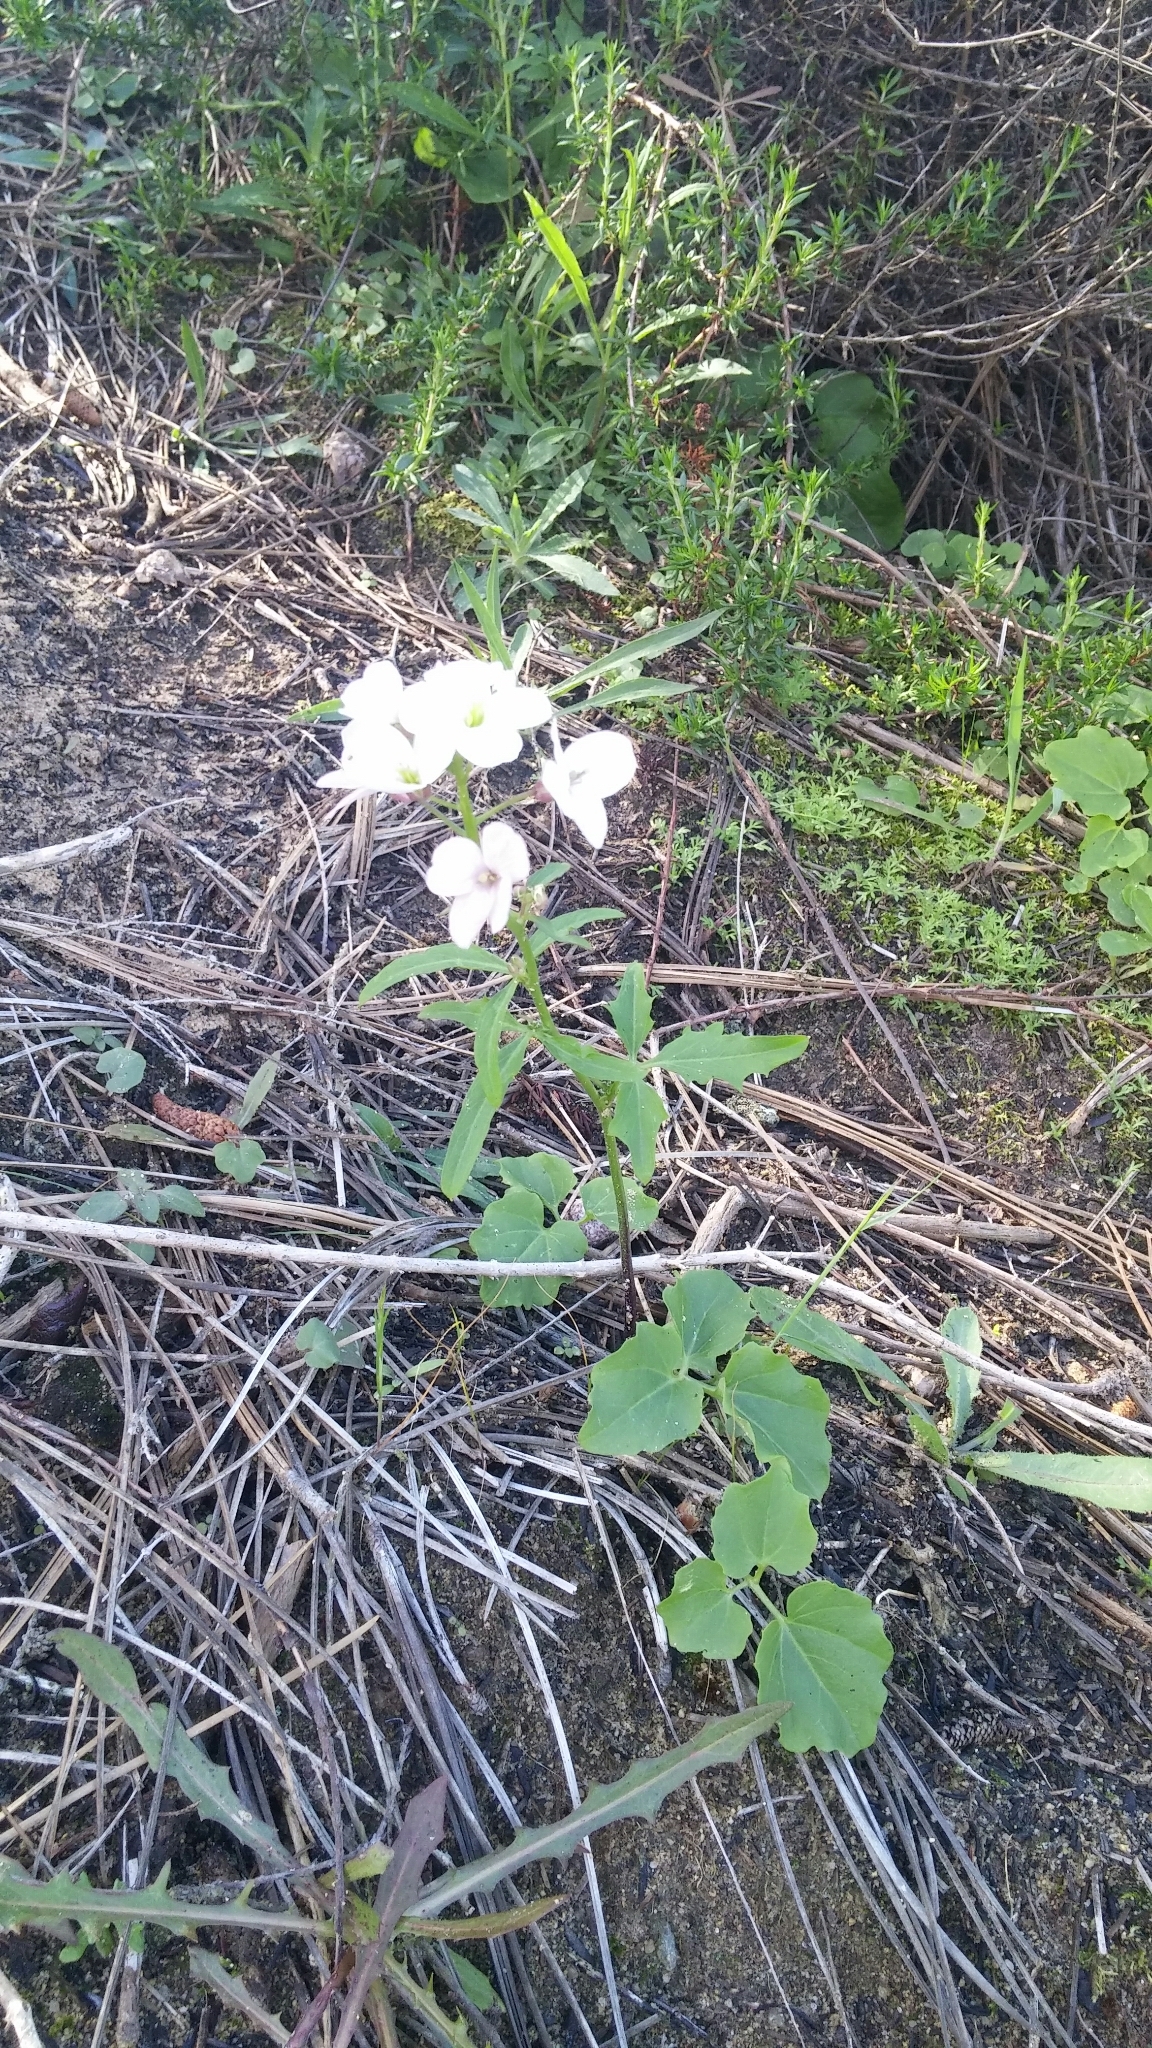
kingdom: Plantae
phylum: Tracheophyta
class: Magnoliopsida
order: Brassicales
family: Brassicaceae
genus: Cardamine
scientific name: Cardamine californica
